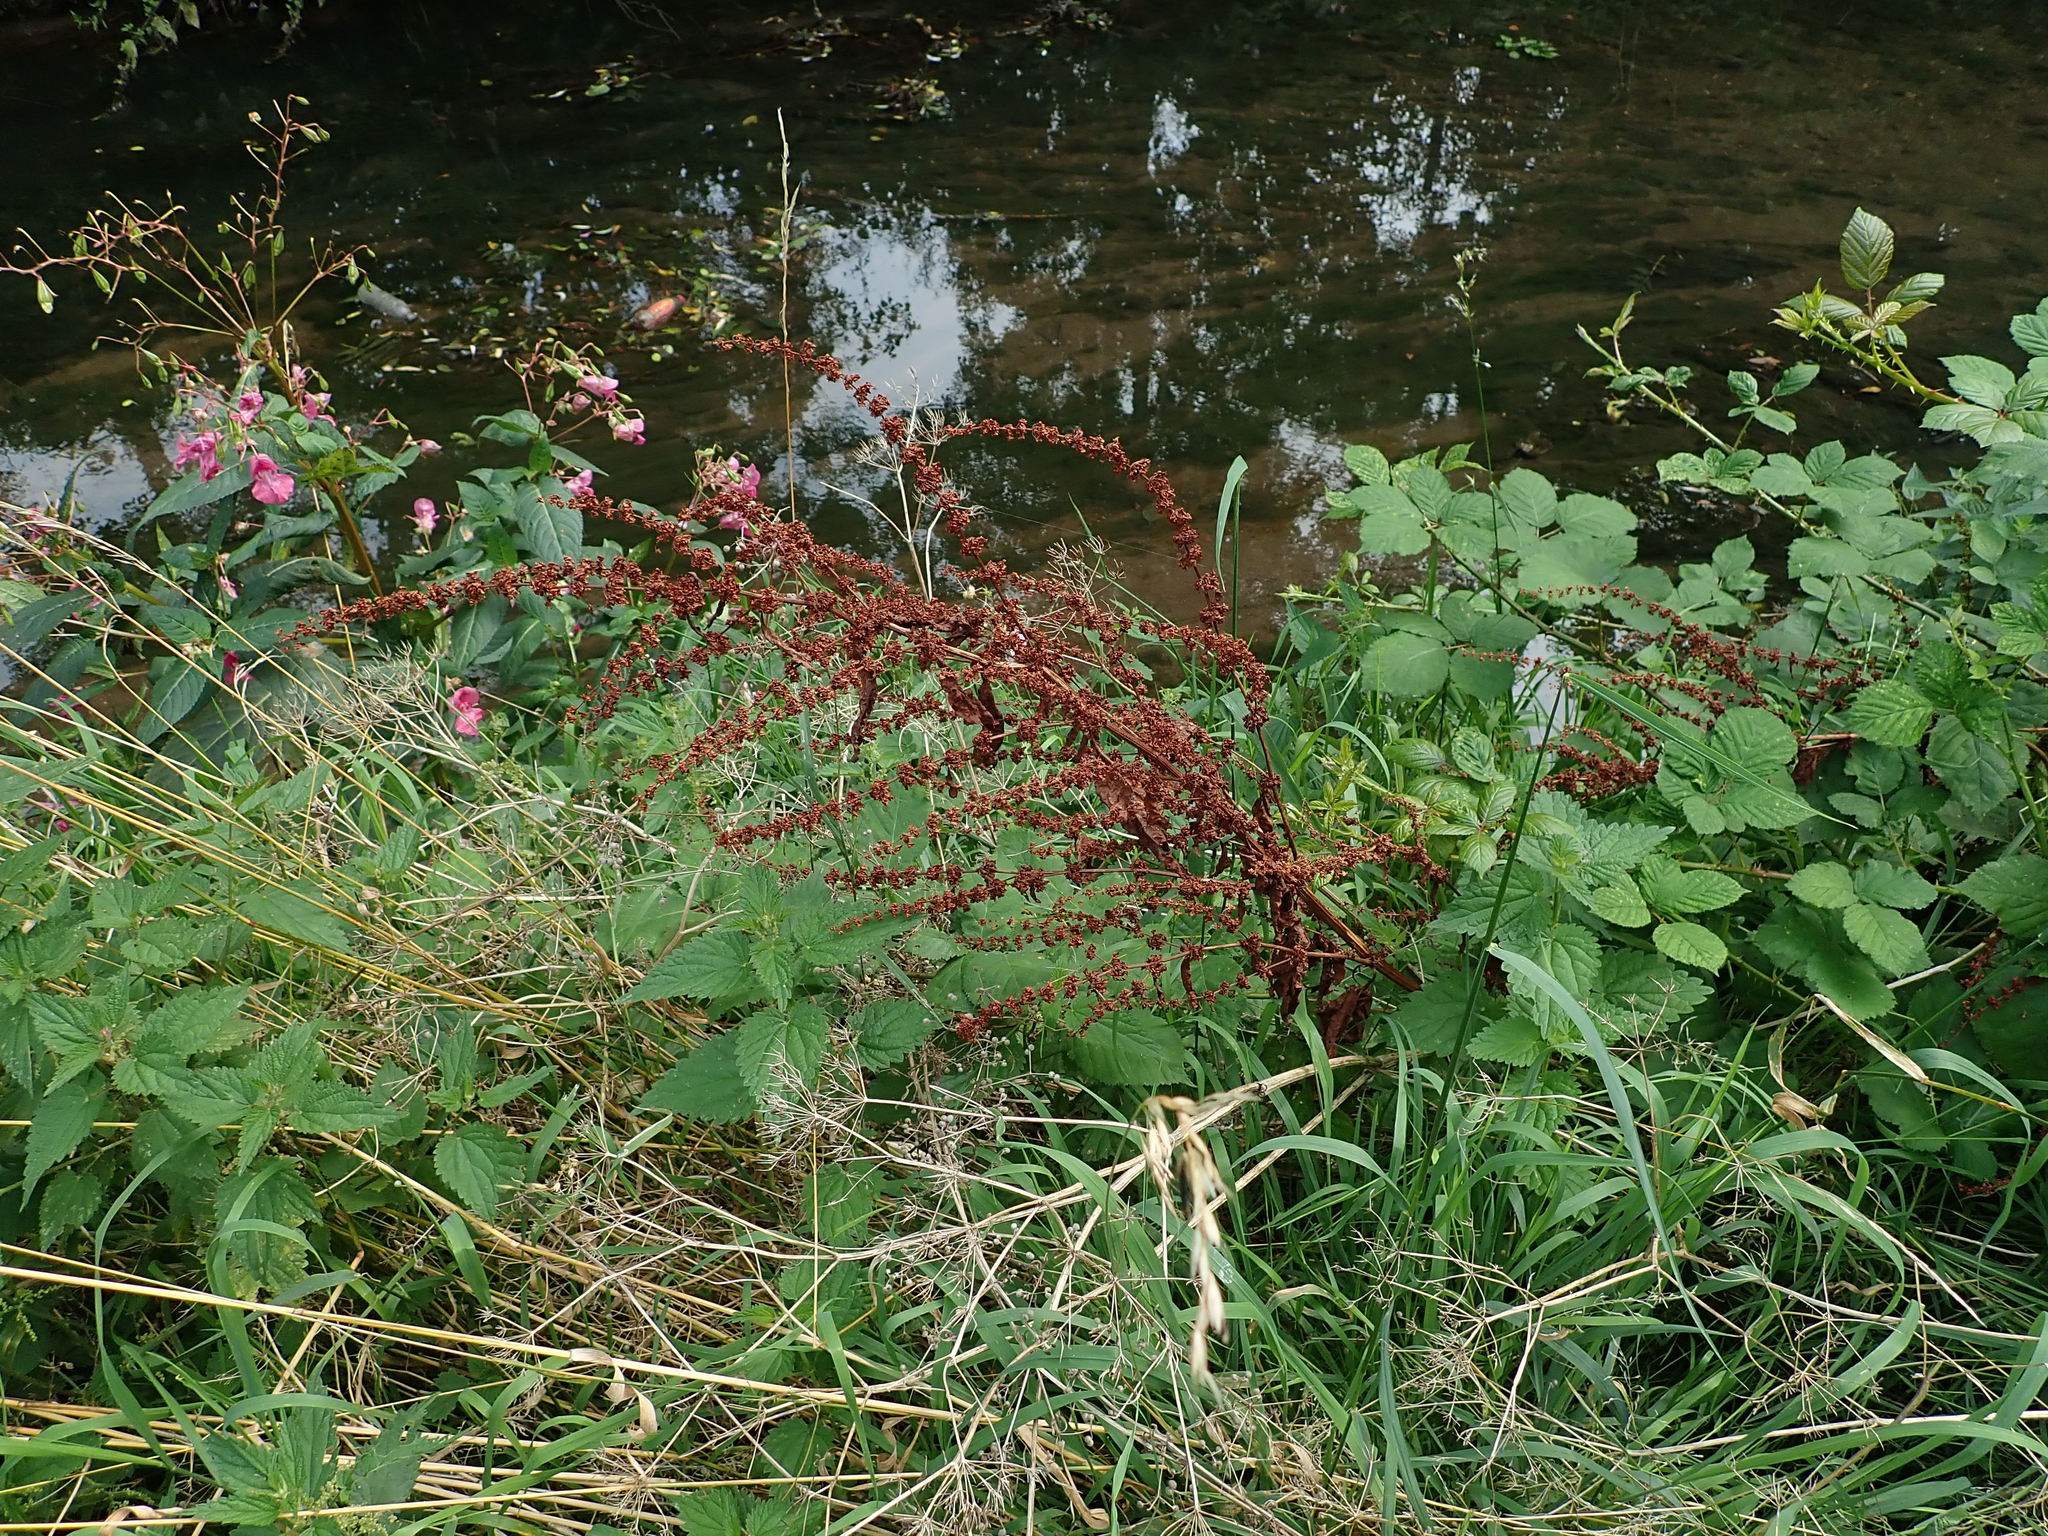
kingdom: Plantae
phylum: Tracheophyta
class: Magnoliopsida
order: Caryophyllales
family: Polygonaceae
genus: Rumex
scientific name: Rumex obtusifolius
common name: Bitter dock
